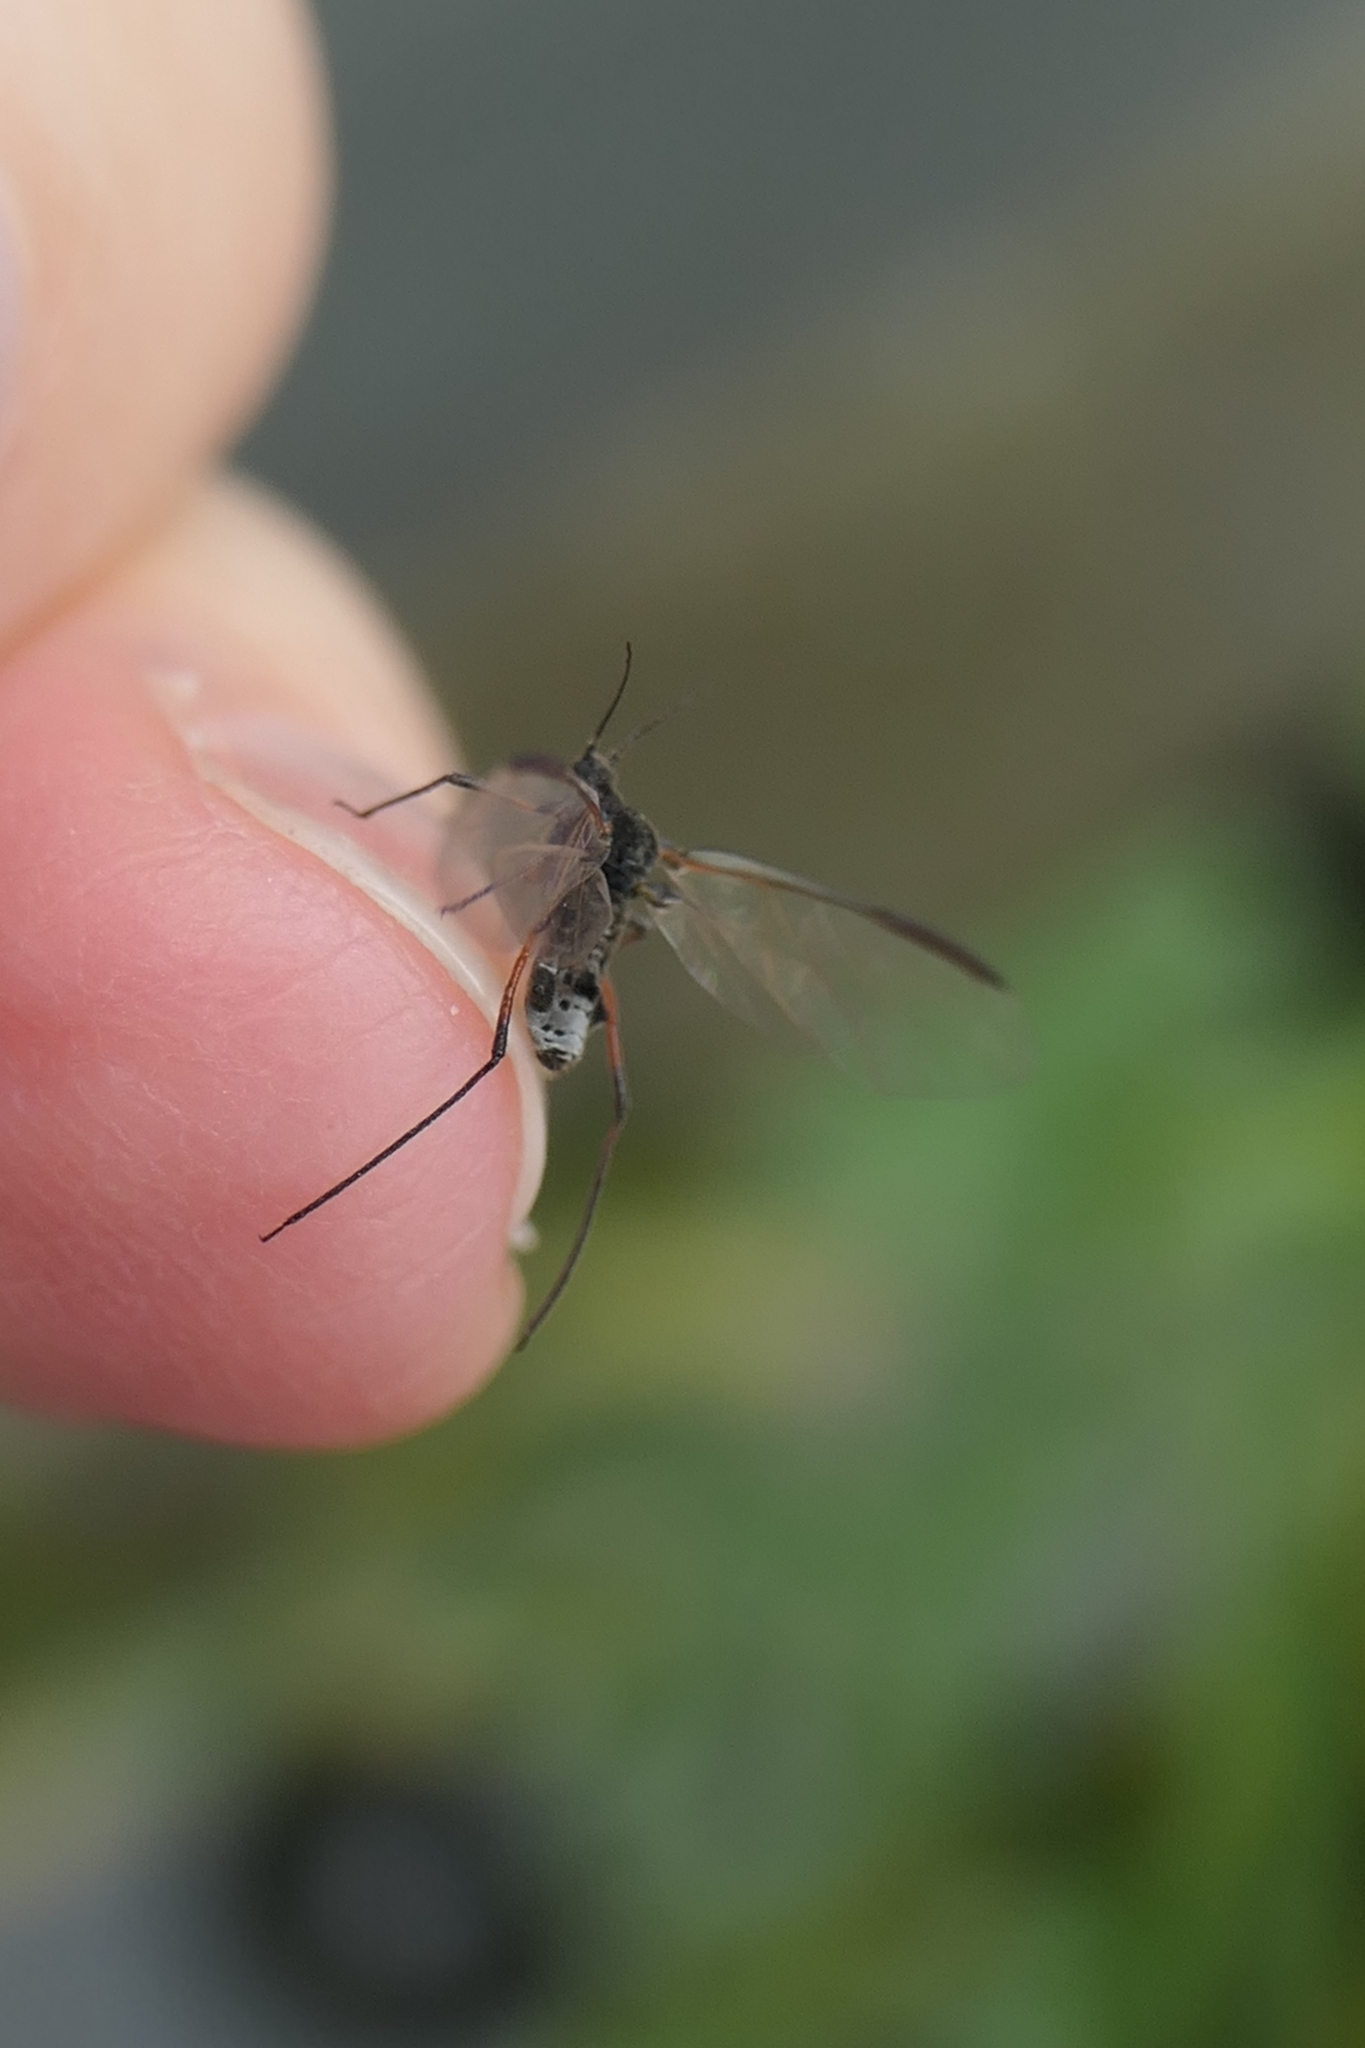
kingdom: Animalia
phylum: Arthropoda
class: Insecta
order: Hemiptera
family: Aphididae
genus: Tuberolachnus
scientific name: Tuberolachnus salignus
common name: Giant willow aphid
